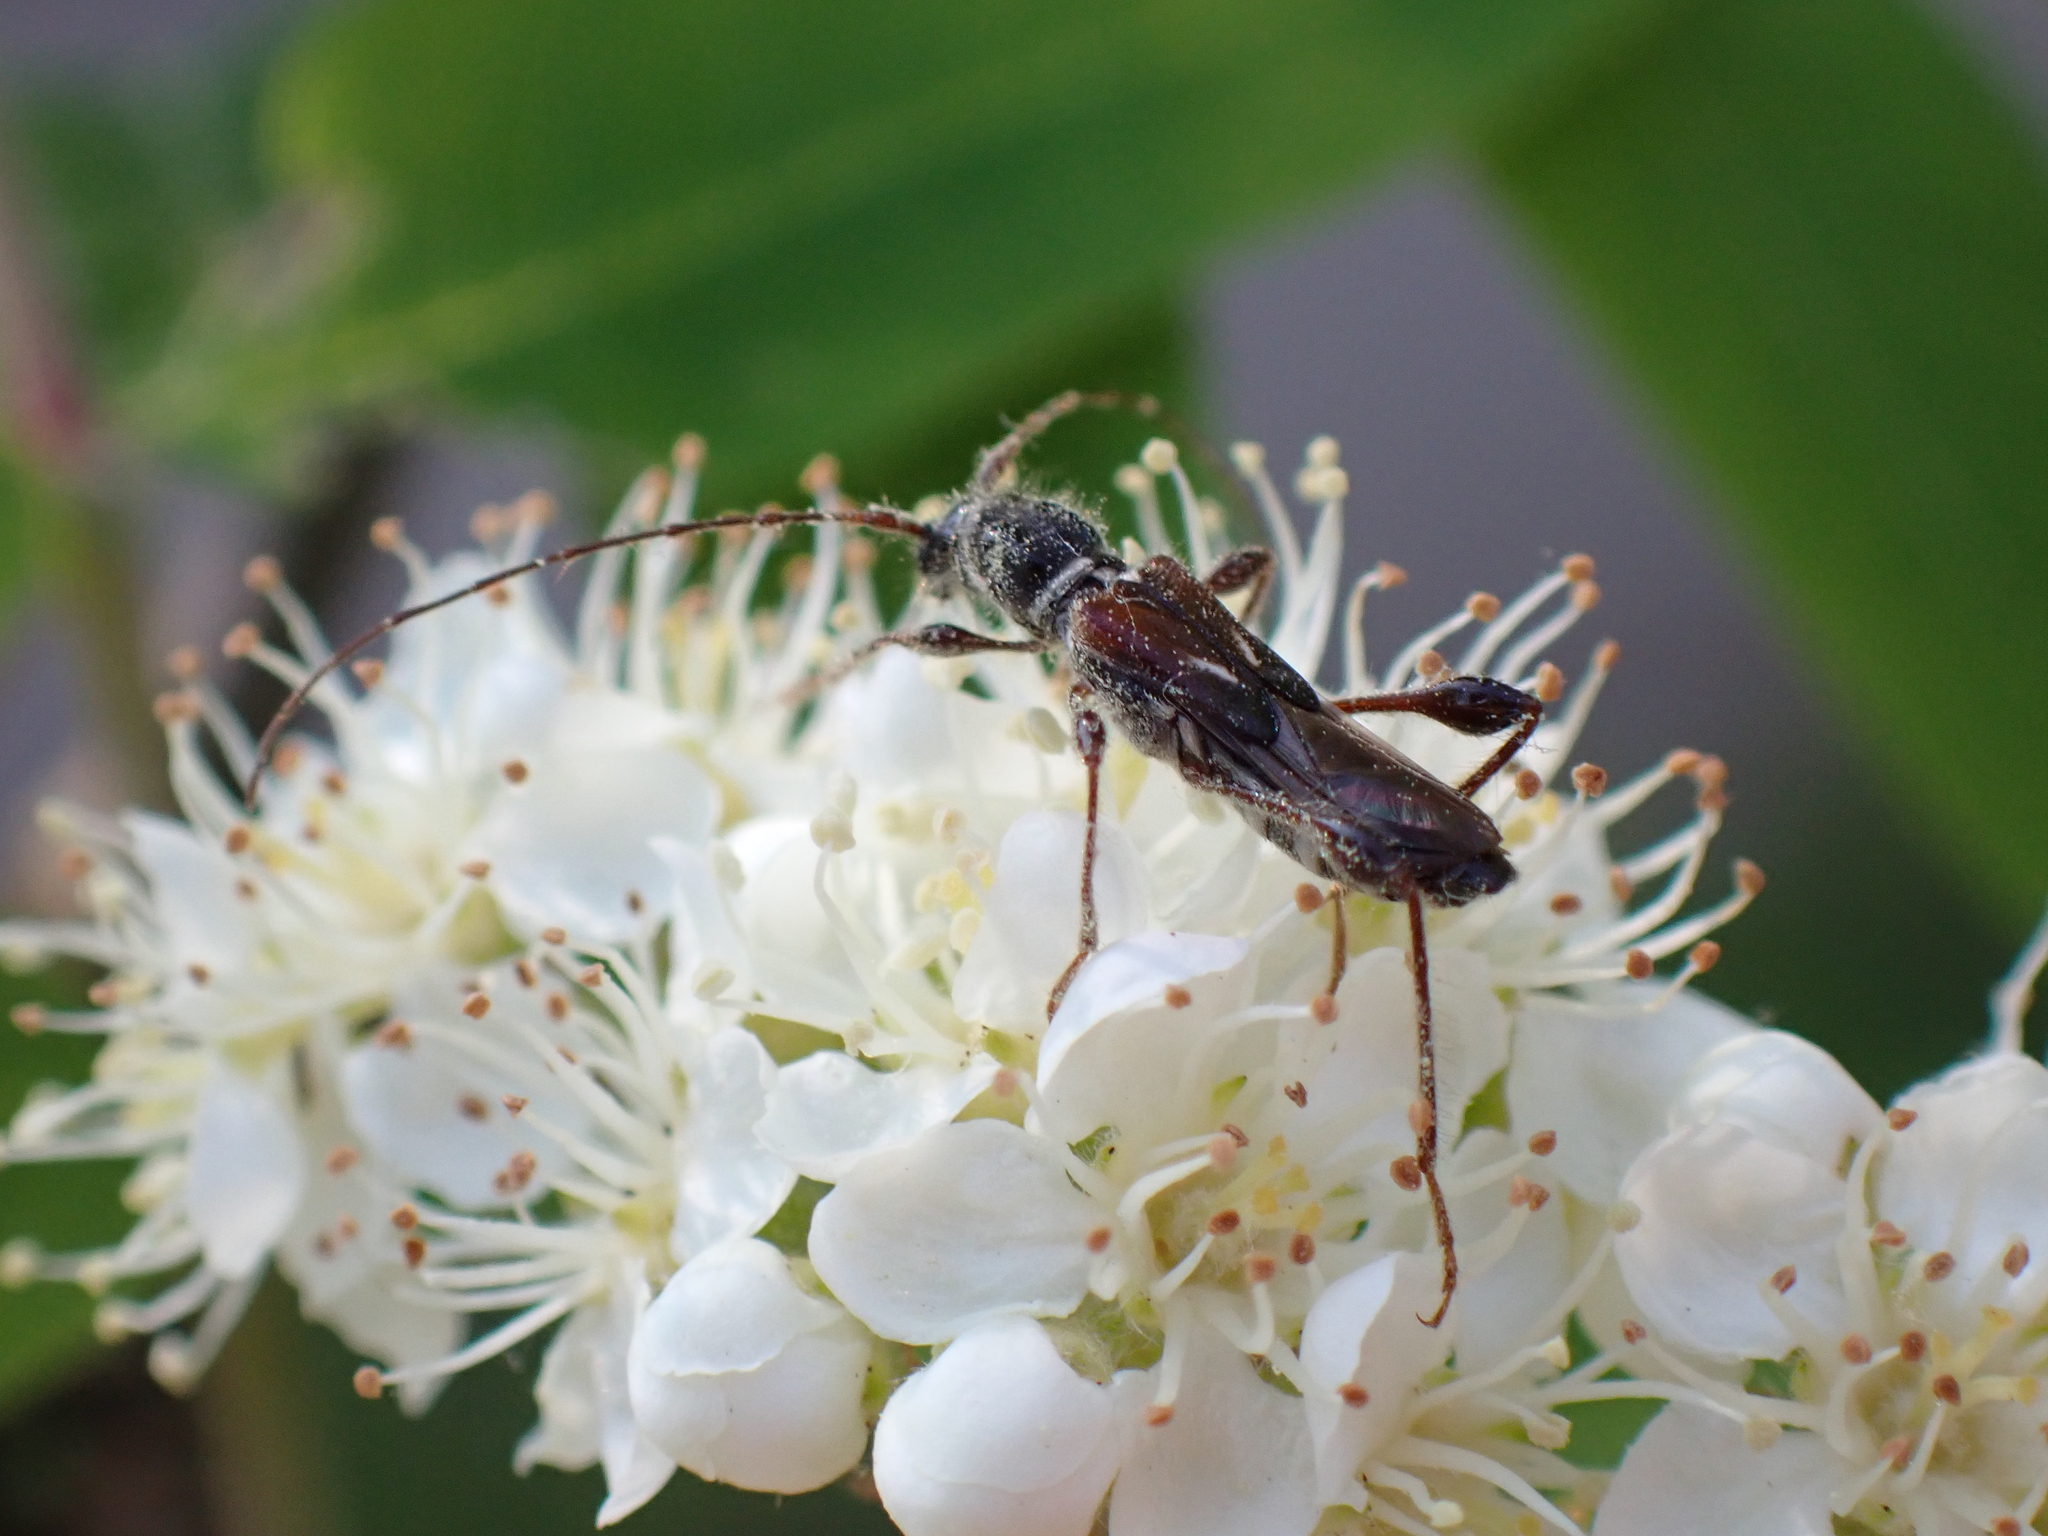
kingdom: Animalia
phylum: Arthropoda
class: Insecta
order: Coleoptera
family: Cerambycidae
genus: Molorchus
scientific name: Molorchus minor
